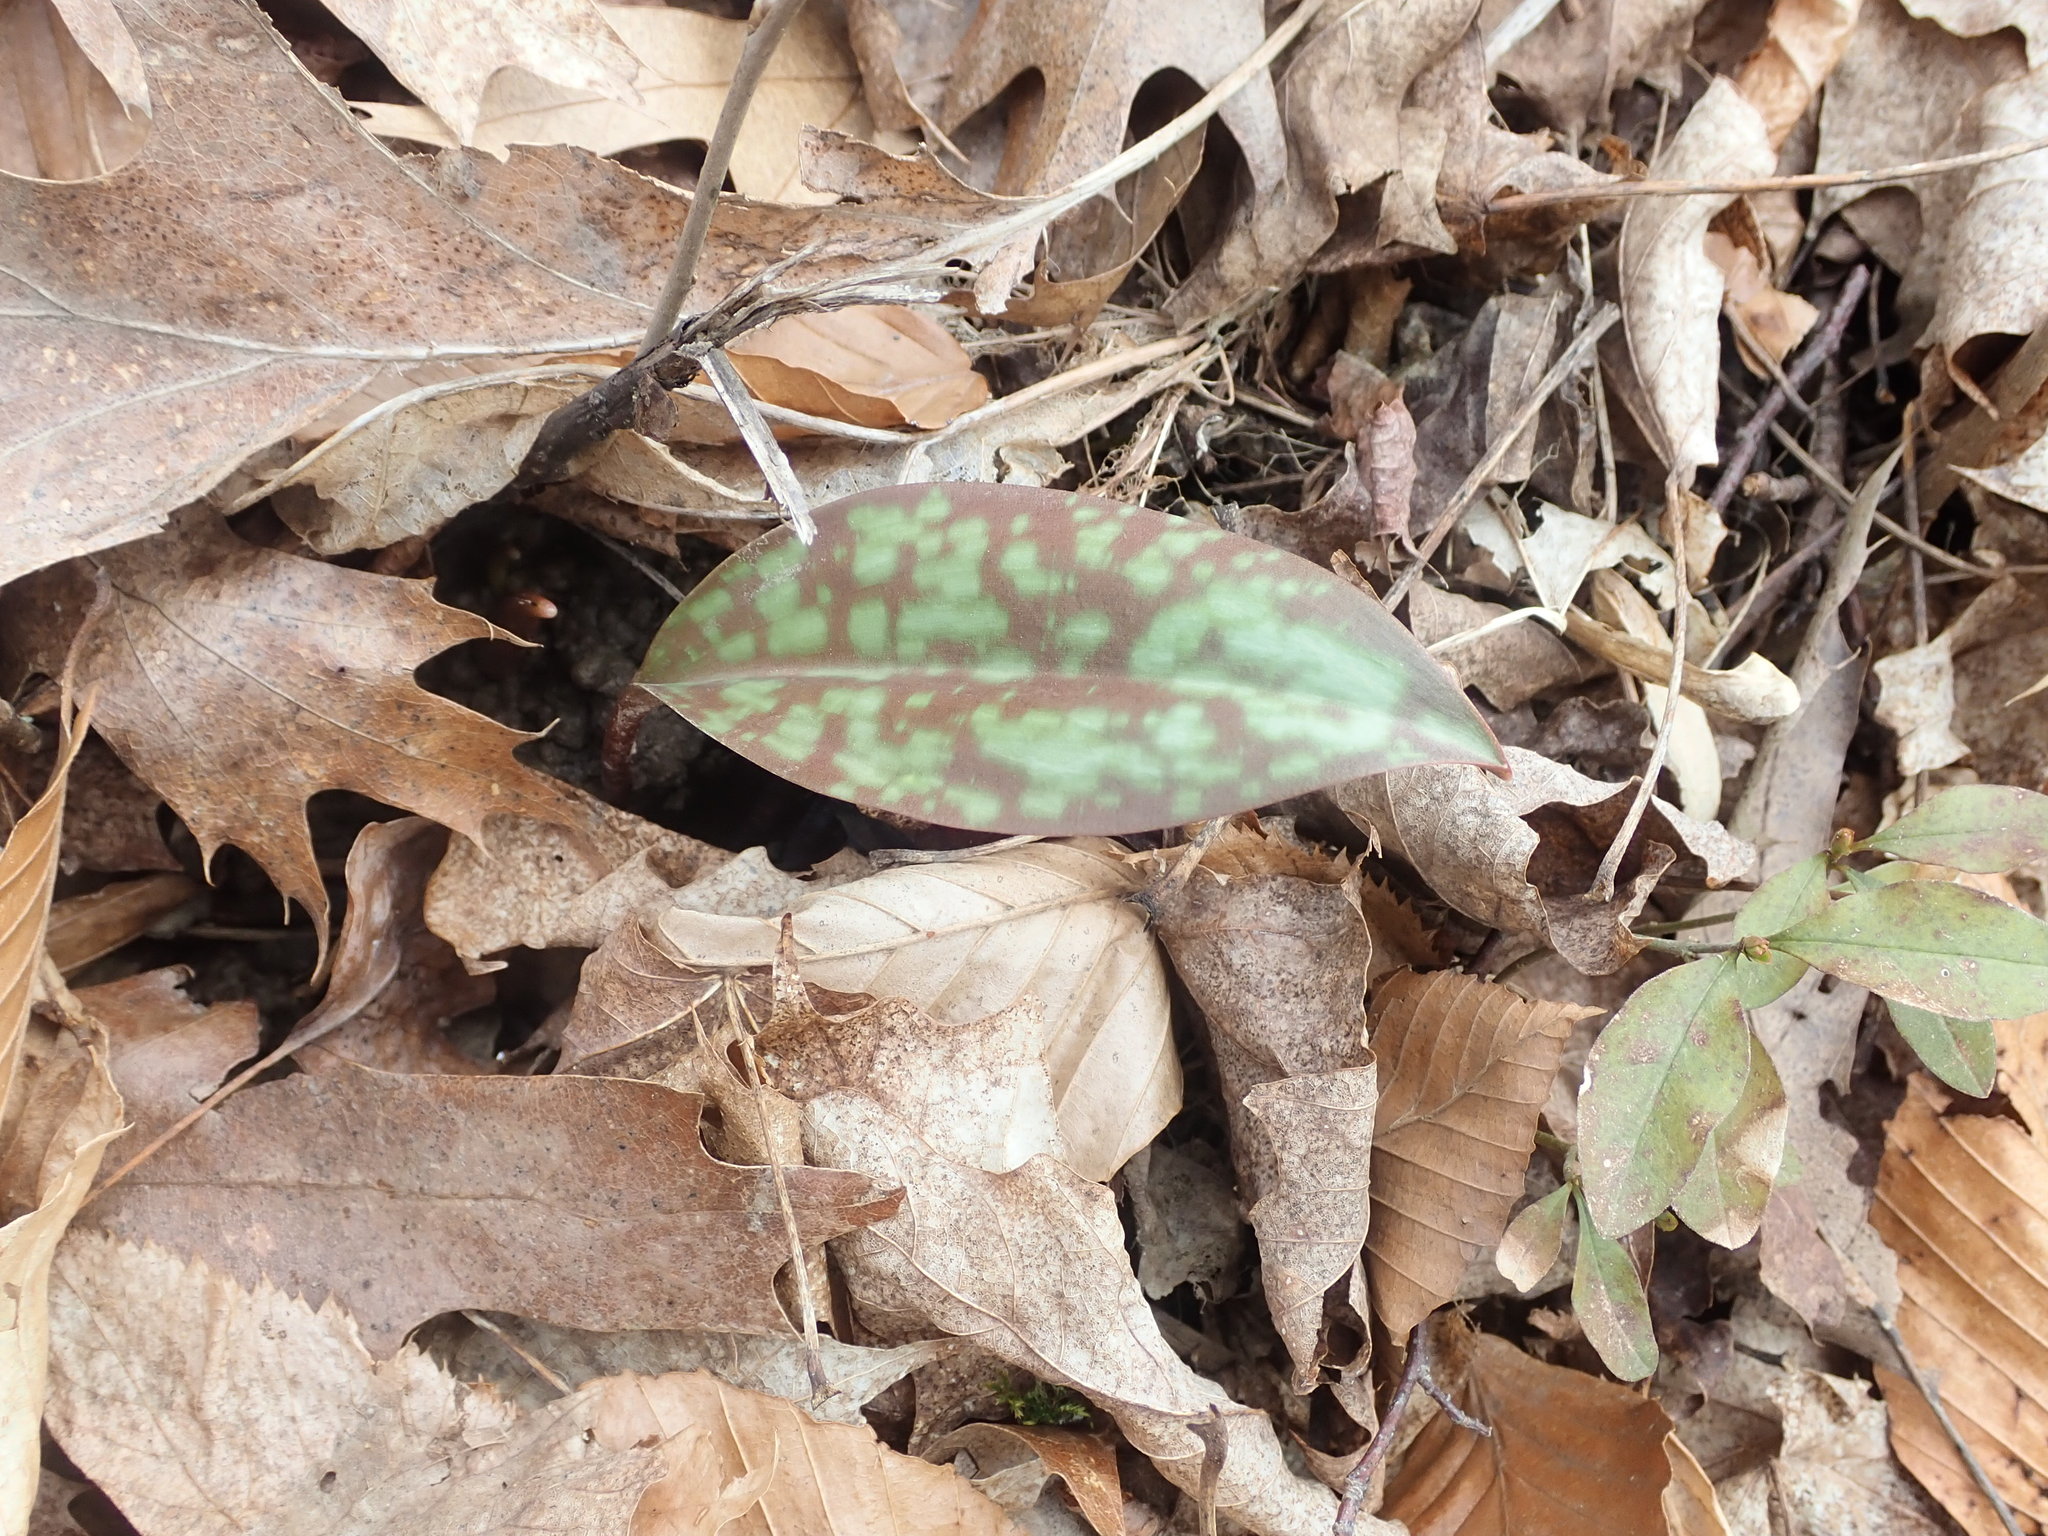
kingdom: Plantae
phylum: Tracheophyta
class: Liliopsida
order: Liliales
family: Liliaceae
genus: Erythronium
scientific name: Erythronium americanum
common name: Yellow adder's-tongue
